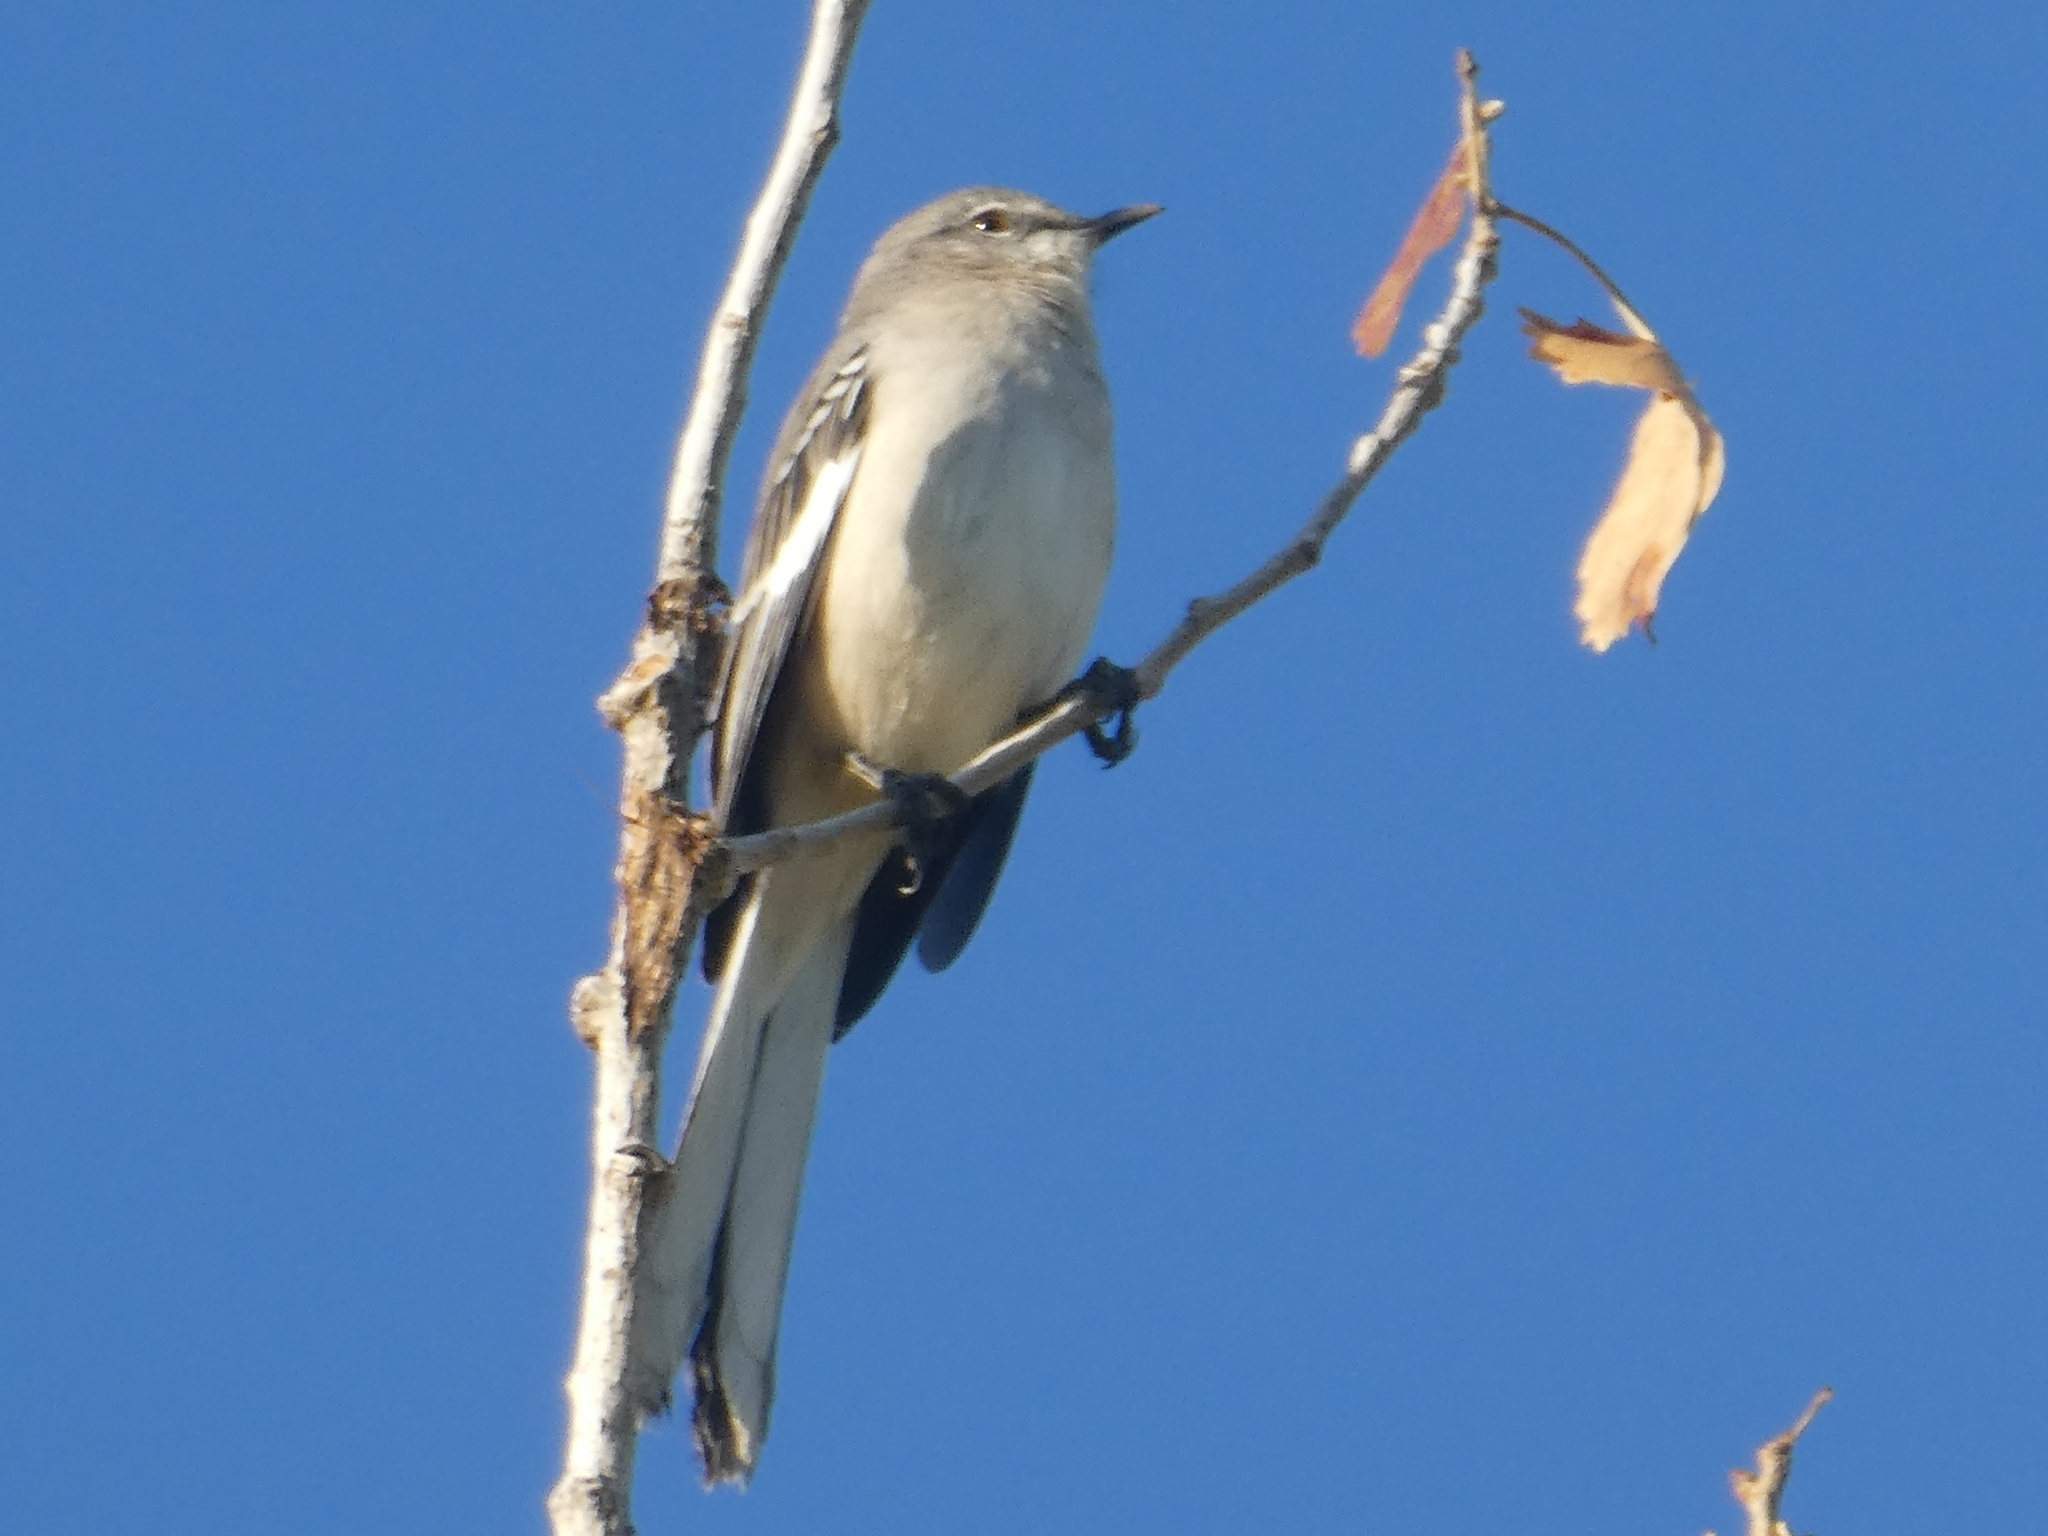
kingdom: Animalia
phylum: Chordata
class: Aves
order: Passeriformes
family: Mimidae
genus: Mimus
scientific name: Mimus polyglottos
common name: Northern mockingbird
